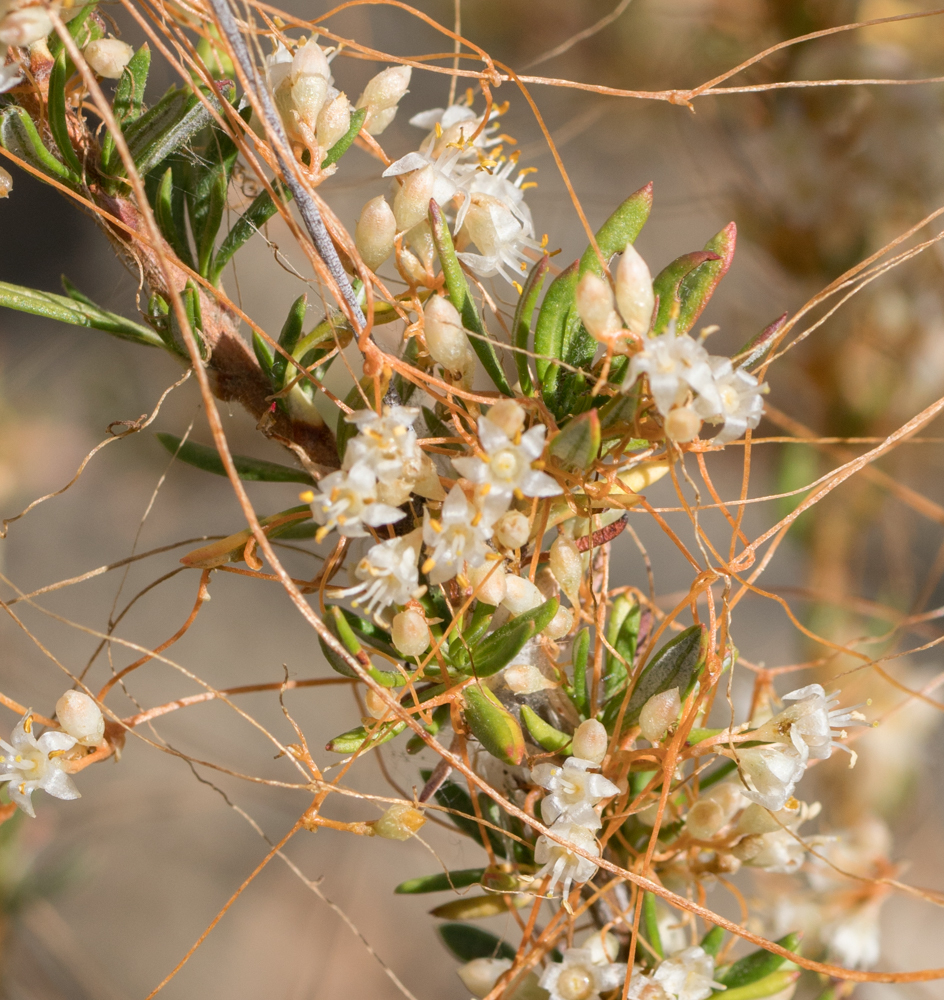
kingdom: Plantae
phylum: Tracheophyta
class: Magnoliopsida
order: Solanales
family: Convolvulaceae
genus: Cuscuta
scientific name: Cuscuta californica
